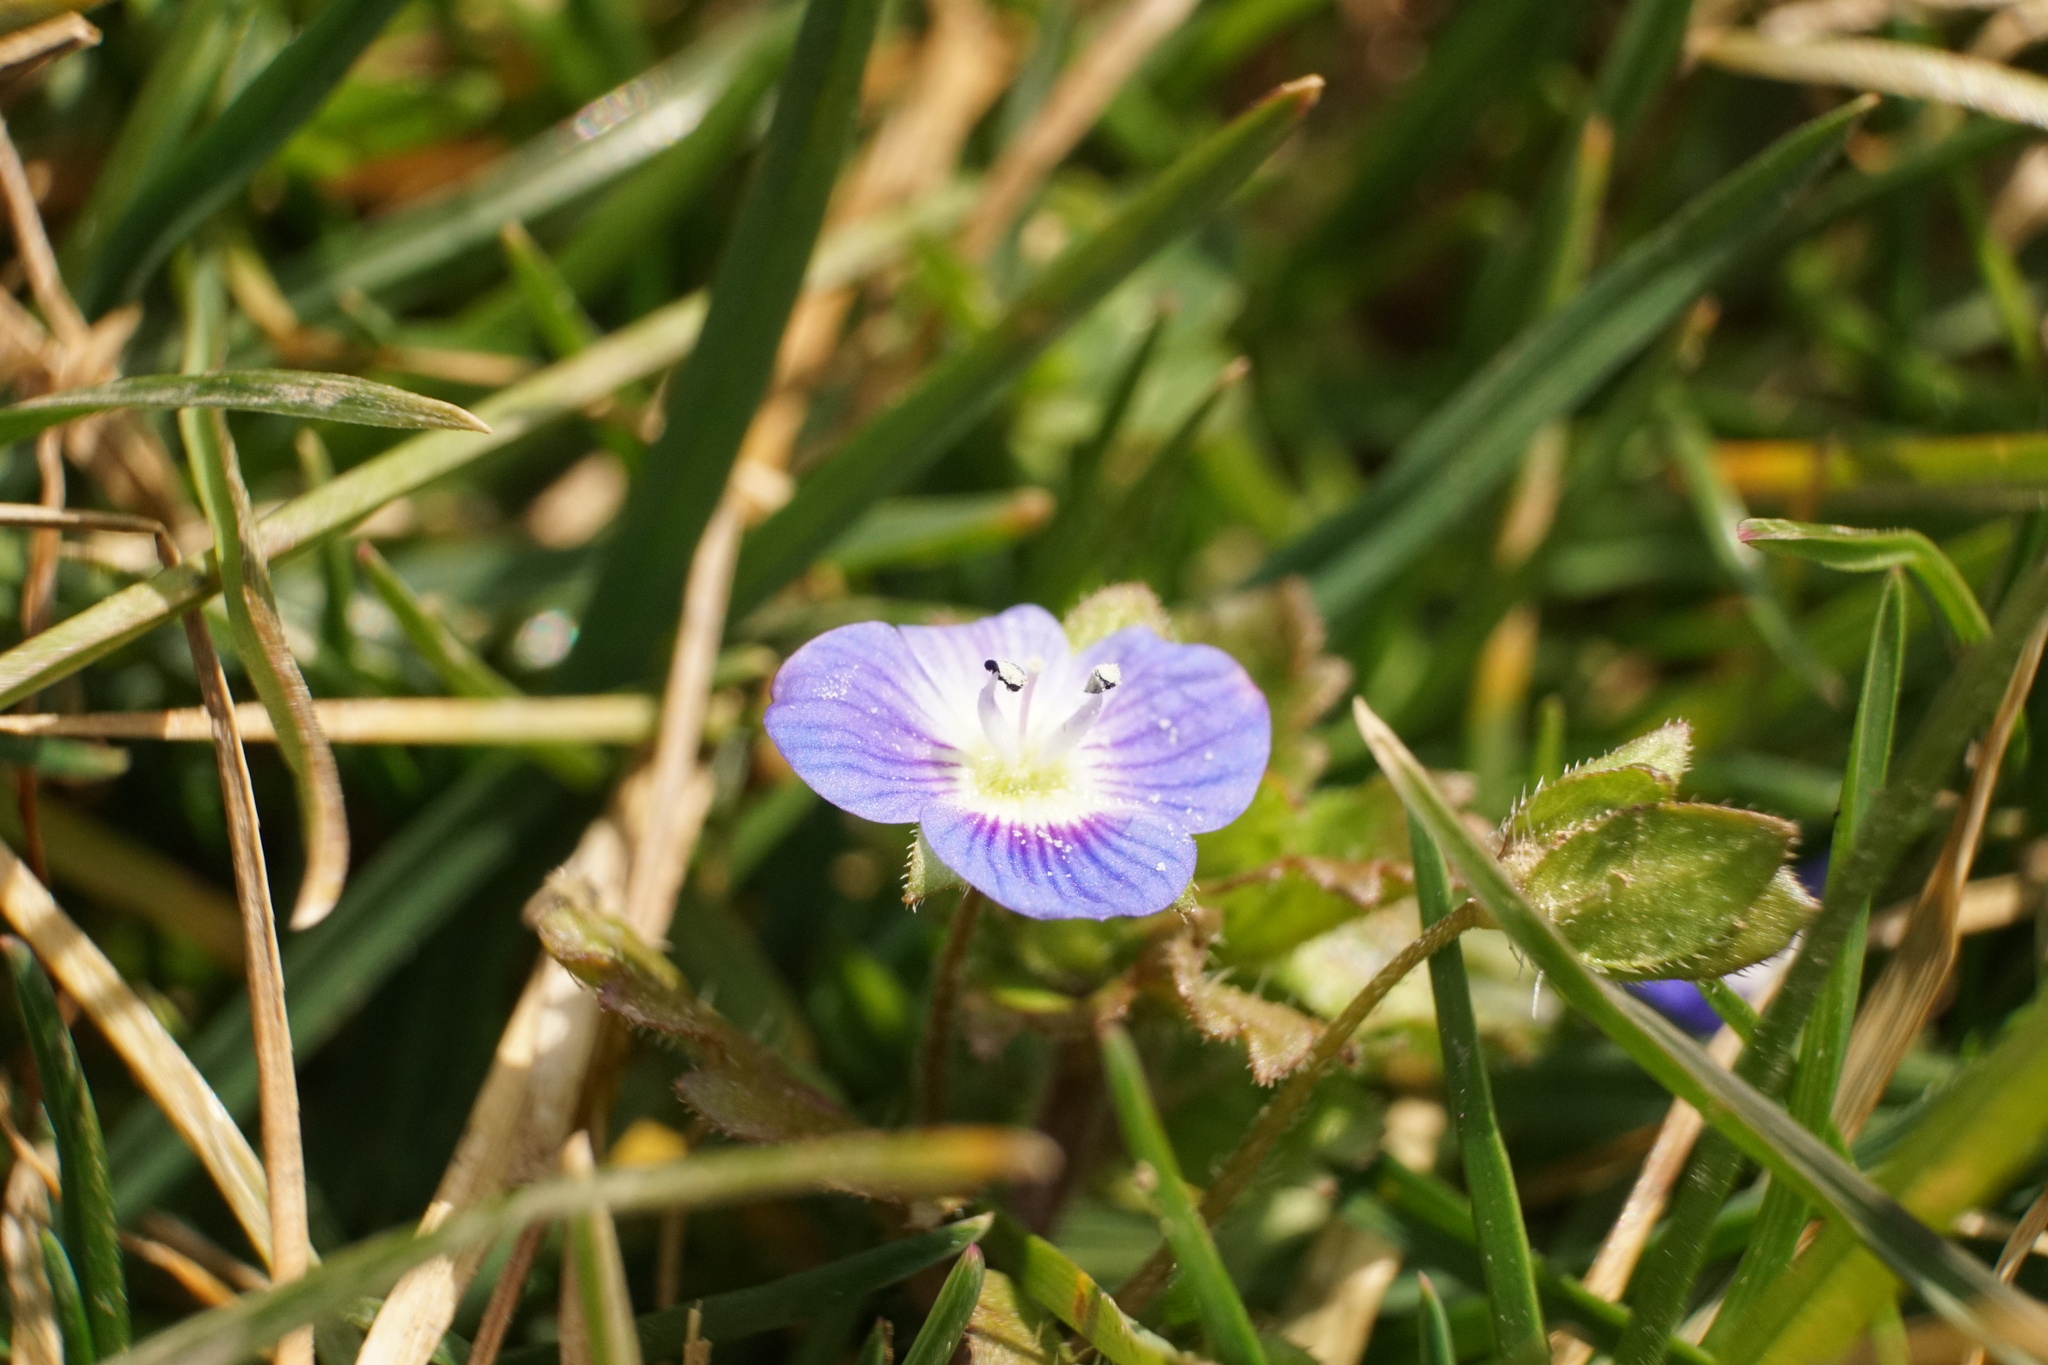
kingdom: Plantae
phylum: Tracheophyta
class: Magnoliopsida
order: Lamiales
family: Plantaginaceae
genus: Veronica
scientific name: Veronica persica
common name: Common field-speedwell
